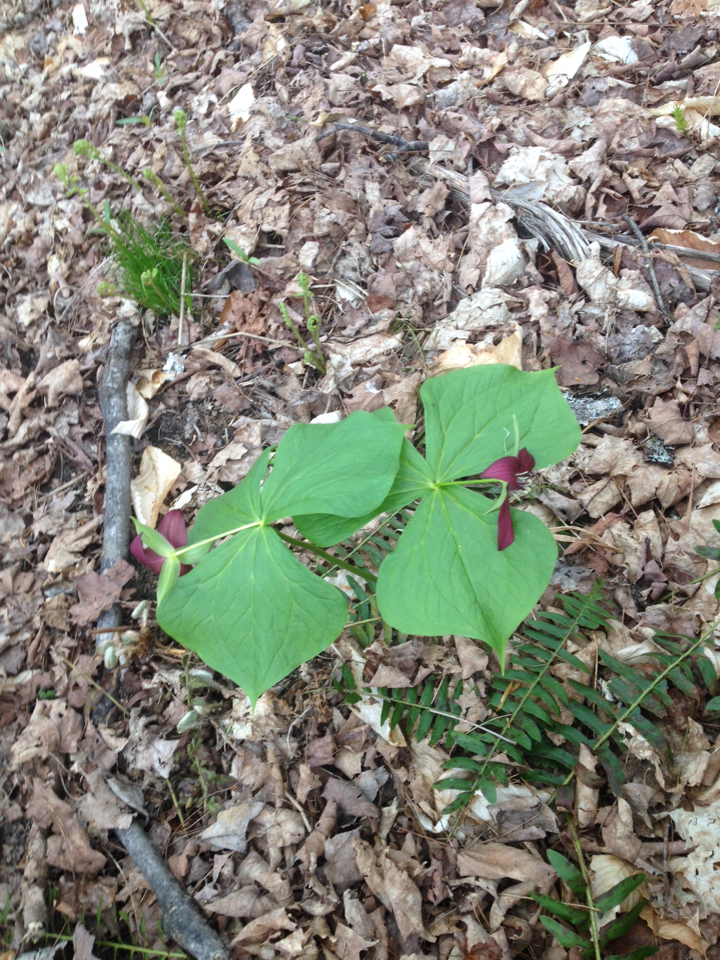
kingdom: Plantae
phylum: Tracheophyta
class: Liliopsida
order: Liliales
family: Melanthiaceae
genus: Trillium
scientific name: Trillium erectum
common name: Purple trillium
